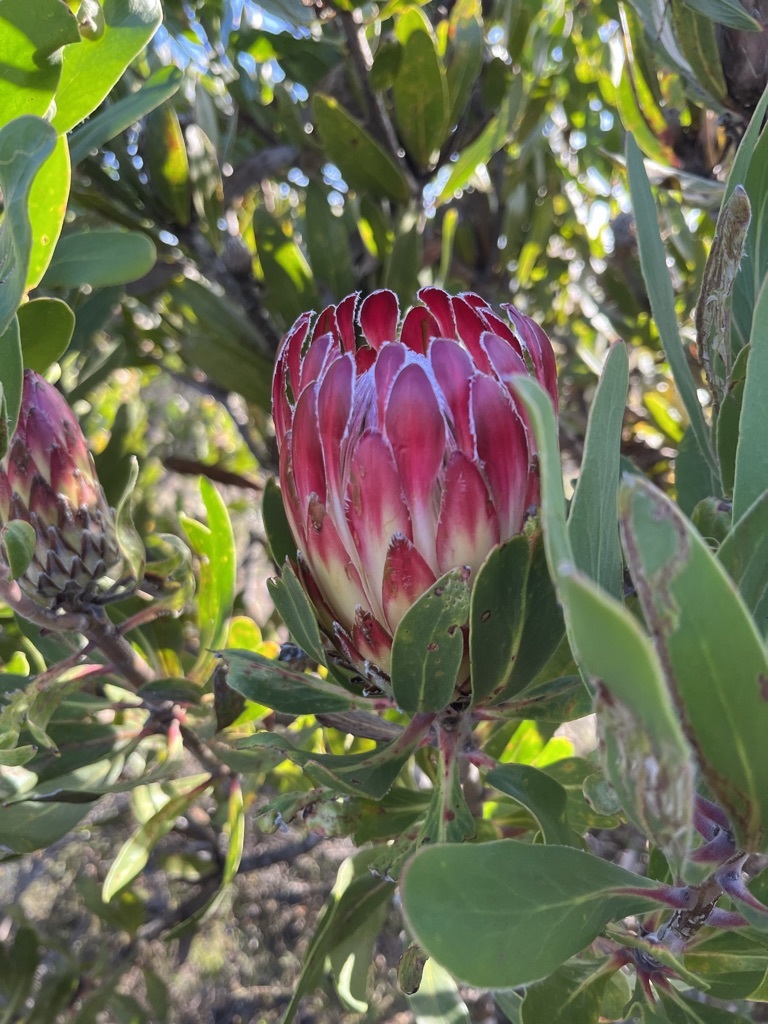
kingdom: Plantae
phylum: Tracheophyta
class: Magnoliopsida
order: Proteales
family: Proteaceae
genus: Protea
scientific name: Protea obtusifolia
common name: Bredasdorp sugarbush
